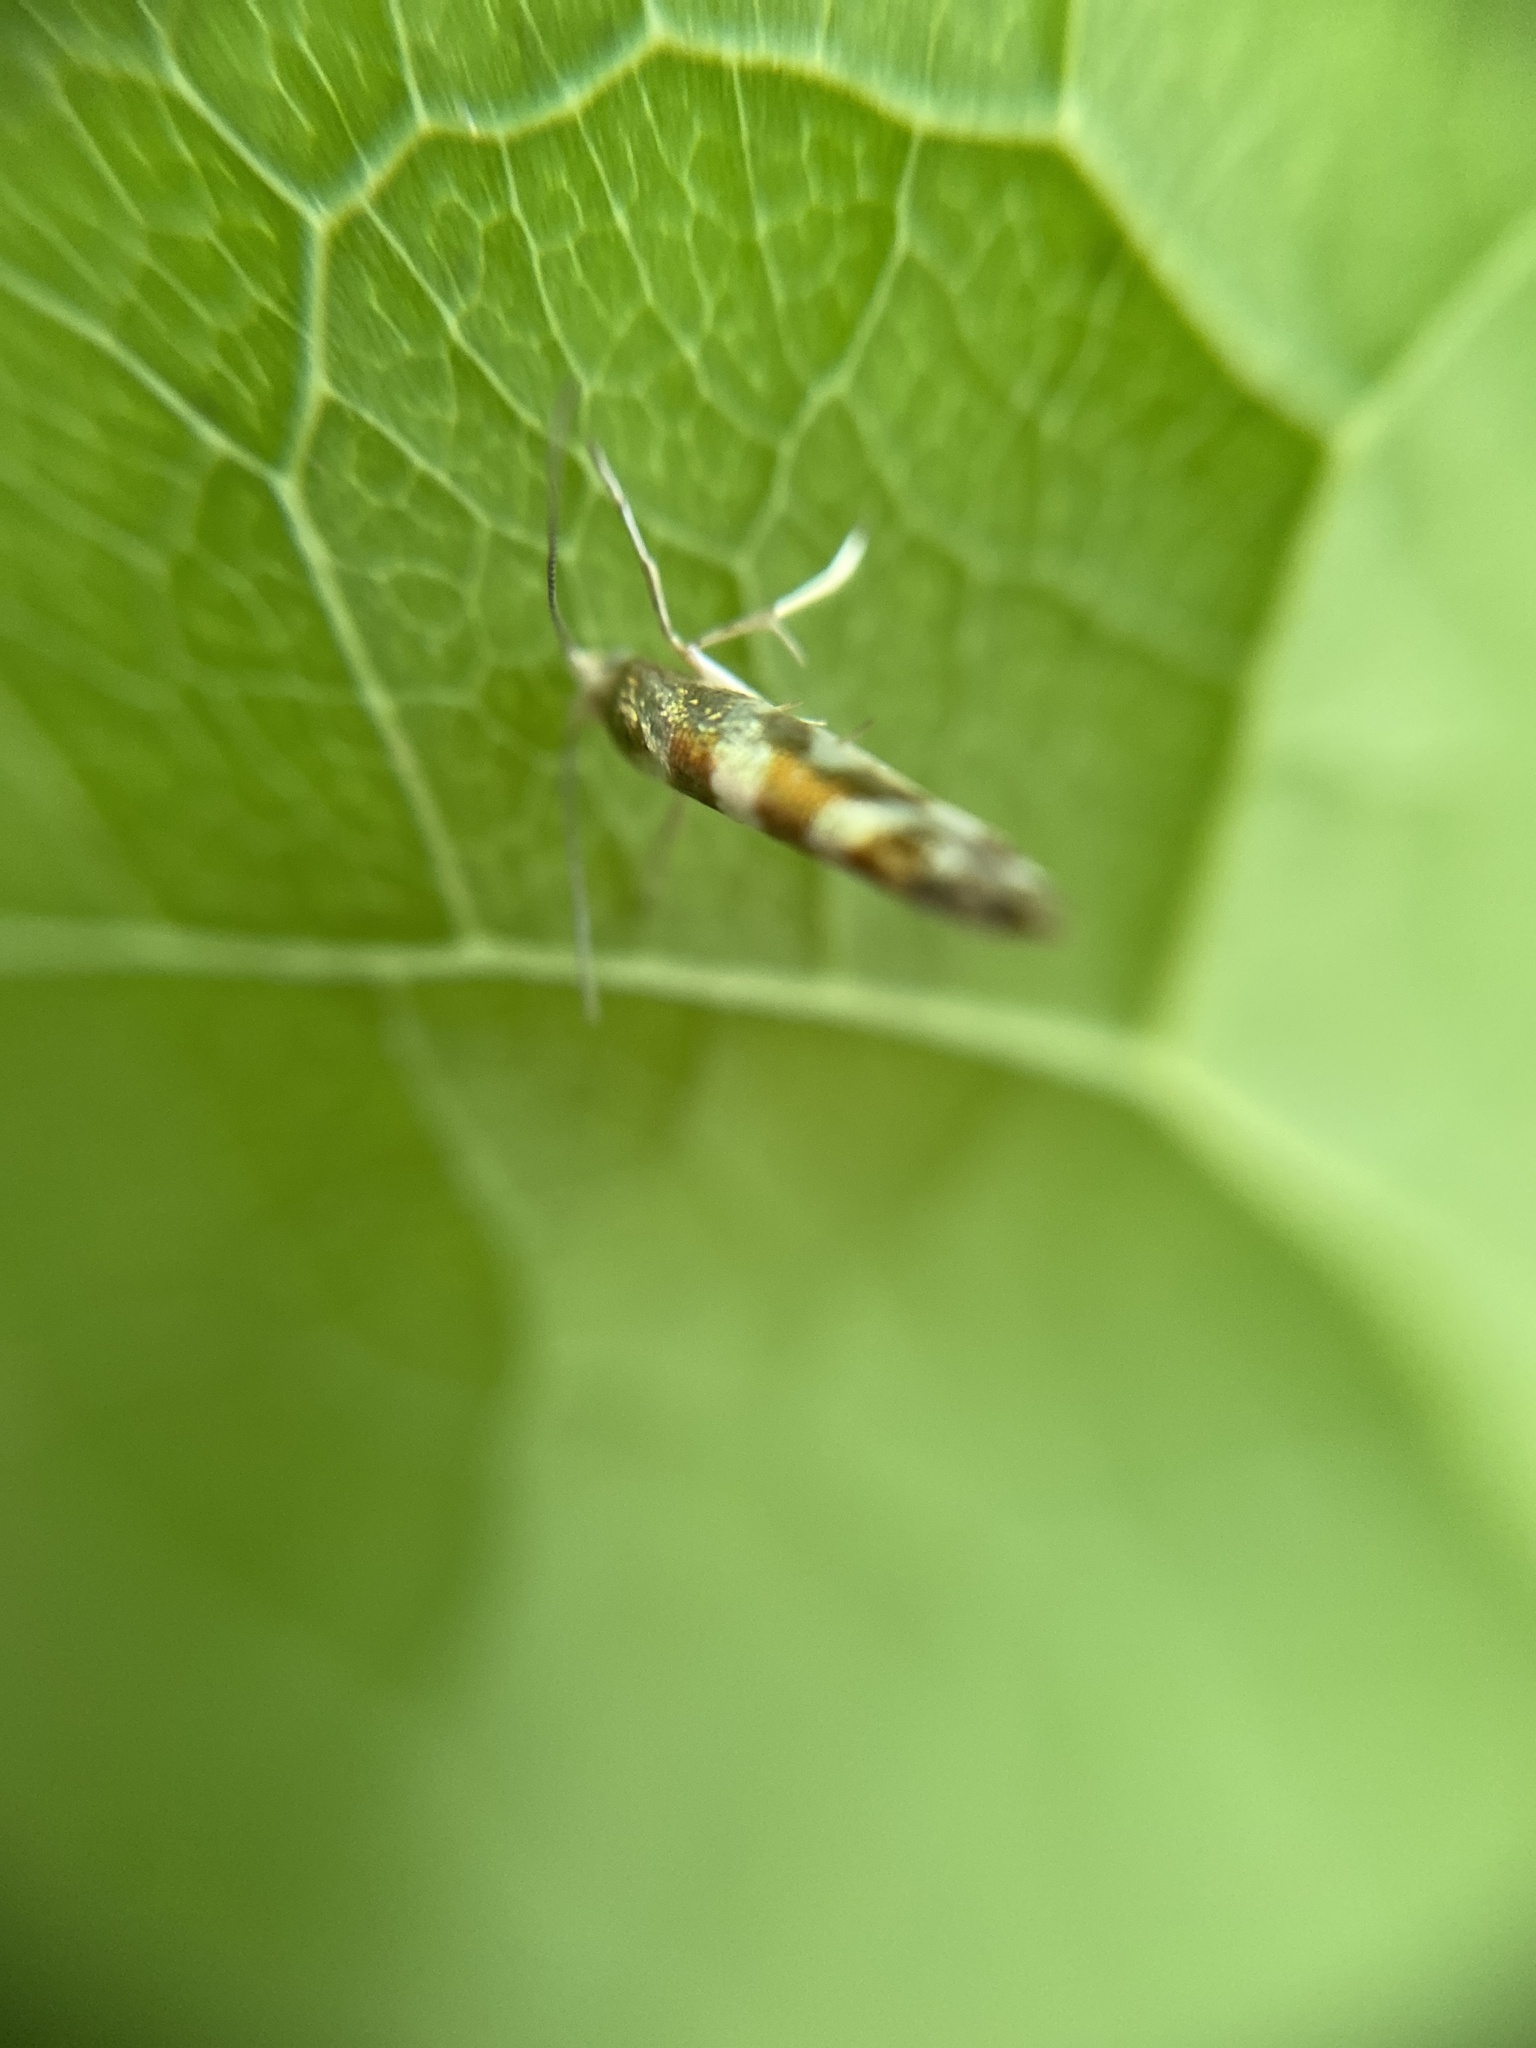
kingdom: Animalia
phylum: Arthropoda
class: Insecta
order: Lepidoptera
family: Argyresthiidae
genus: Argyresthia
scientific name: Argyresthia goedartella
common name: Golden argent
